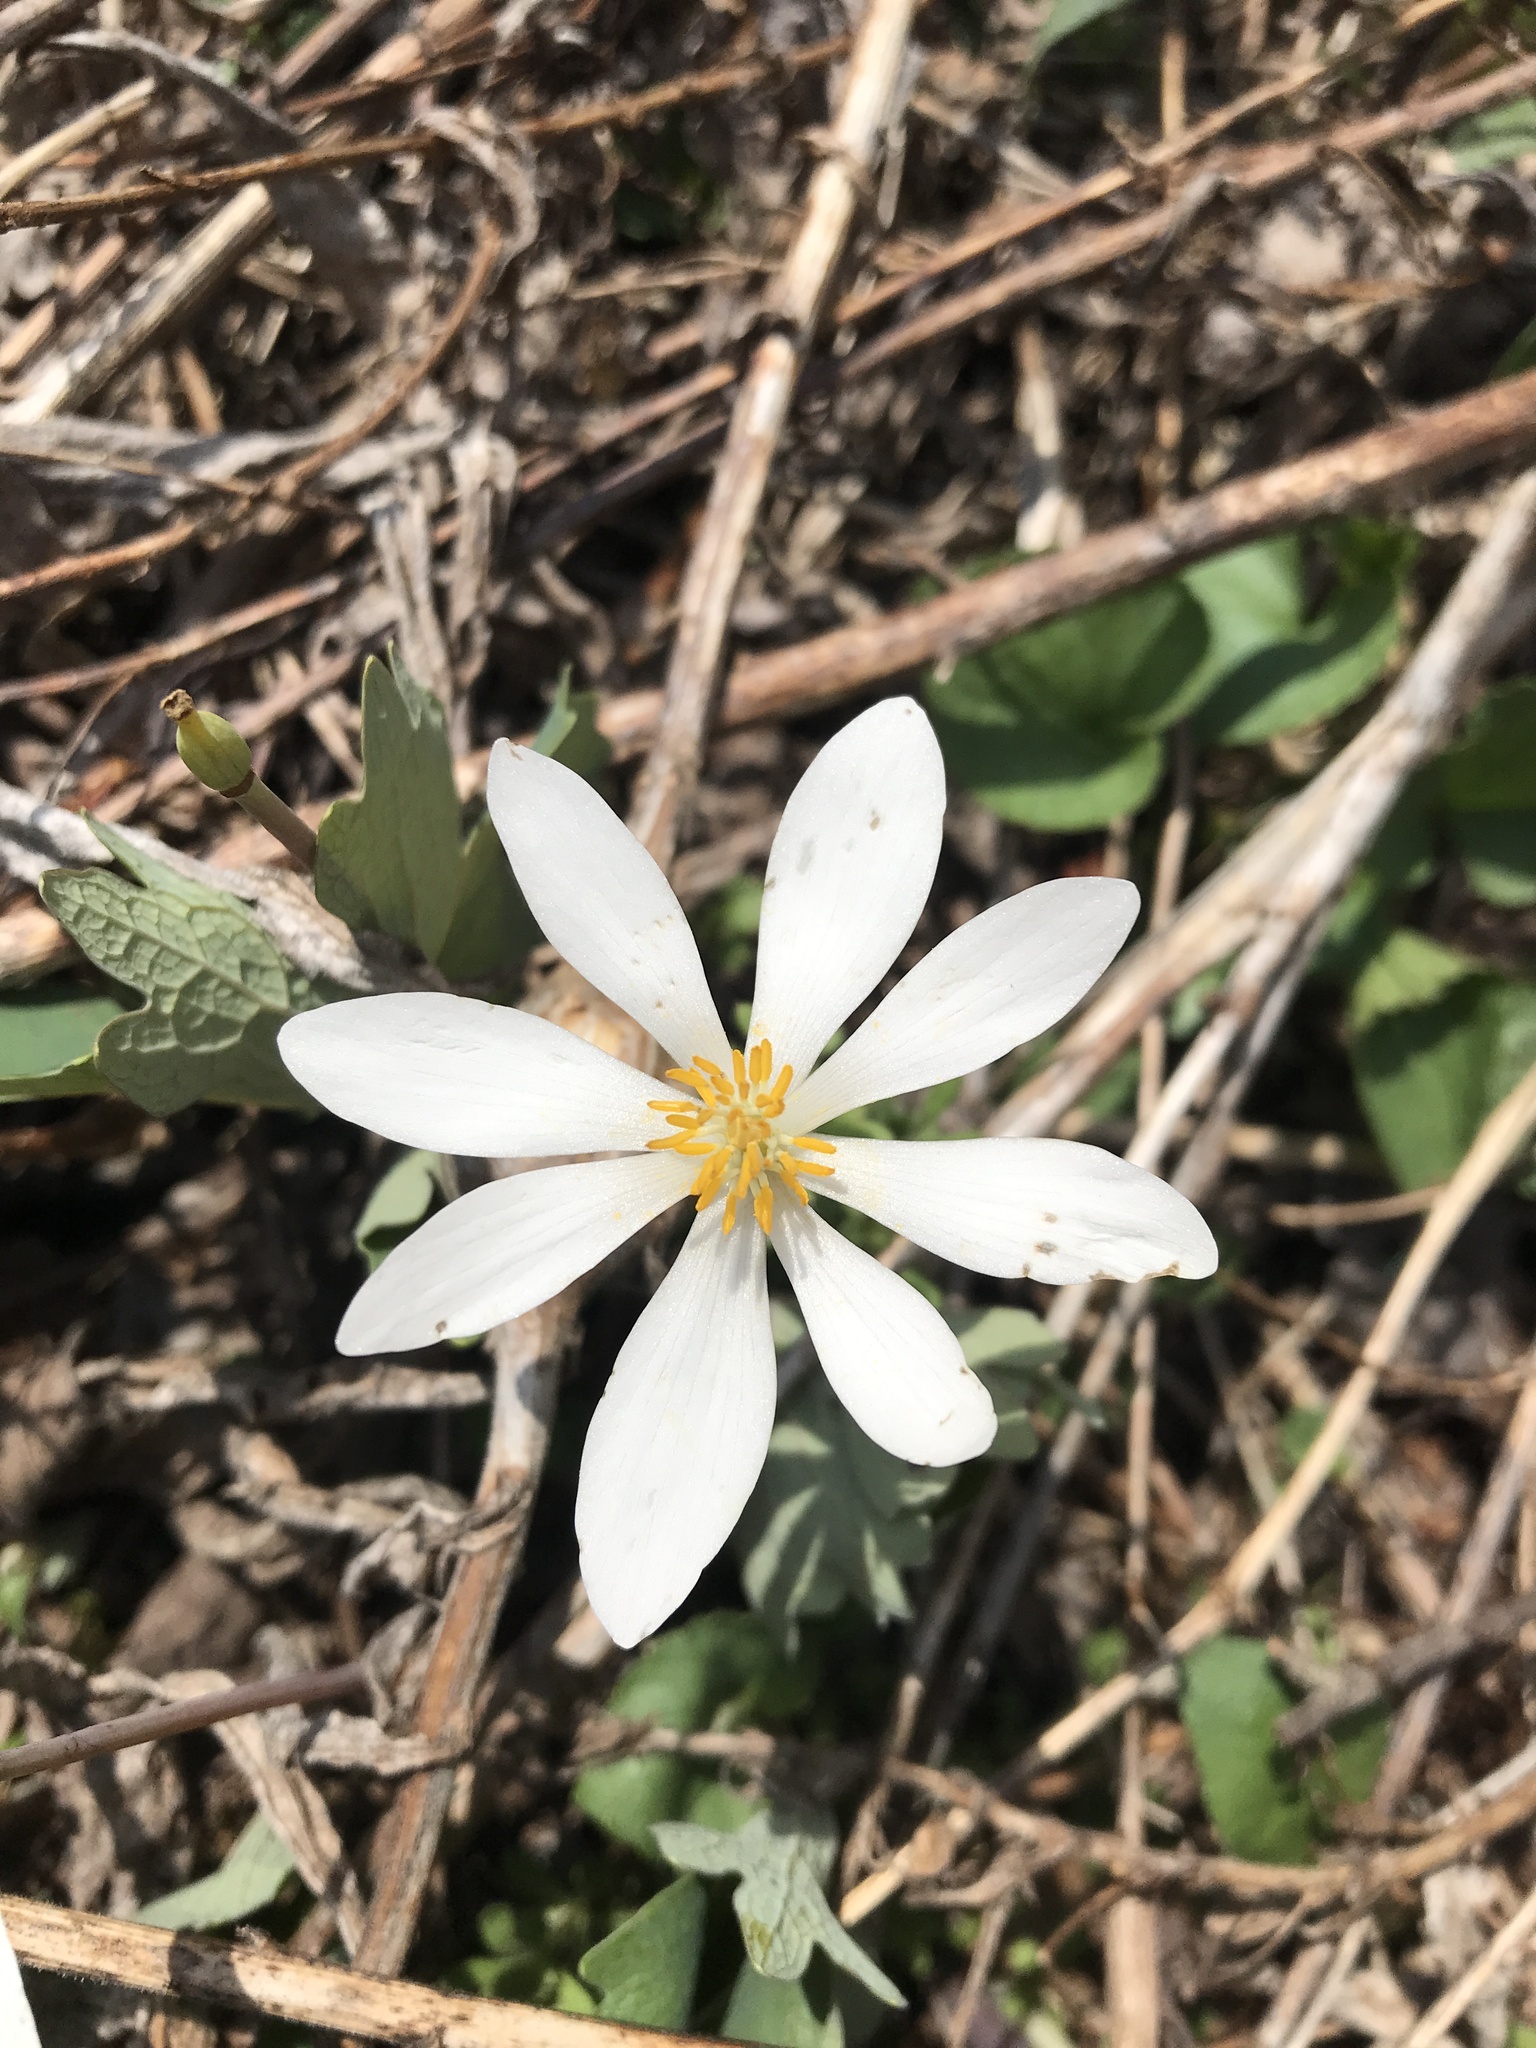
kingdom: Plantae
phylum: Tracheophyta
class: Magnoliopsida
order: Ranunculales
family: Papaveraceae
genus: Sanguinaria
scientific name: Sanguinaria canadensis
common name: Bloodroot
